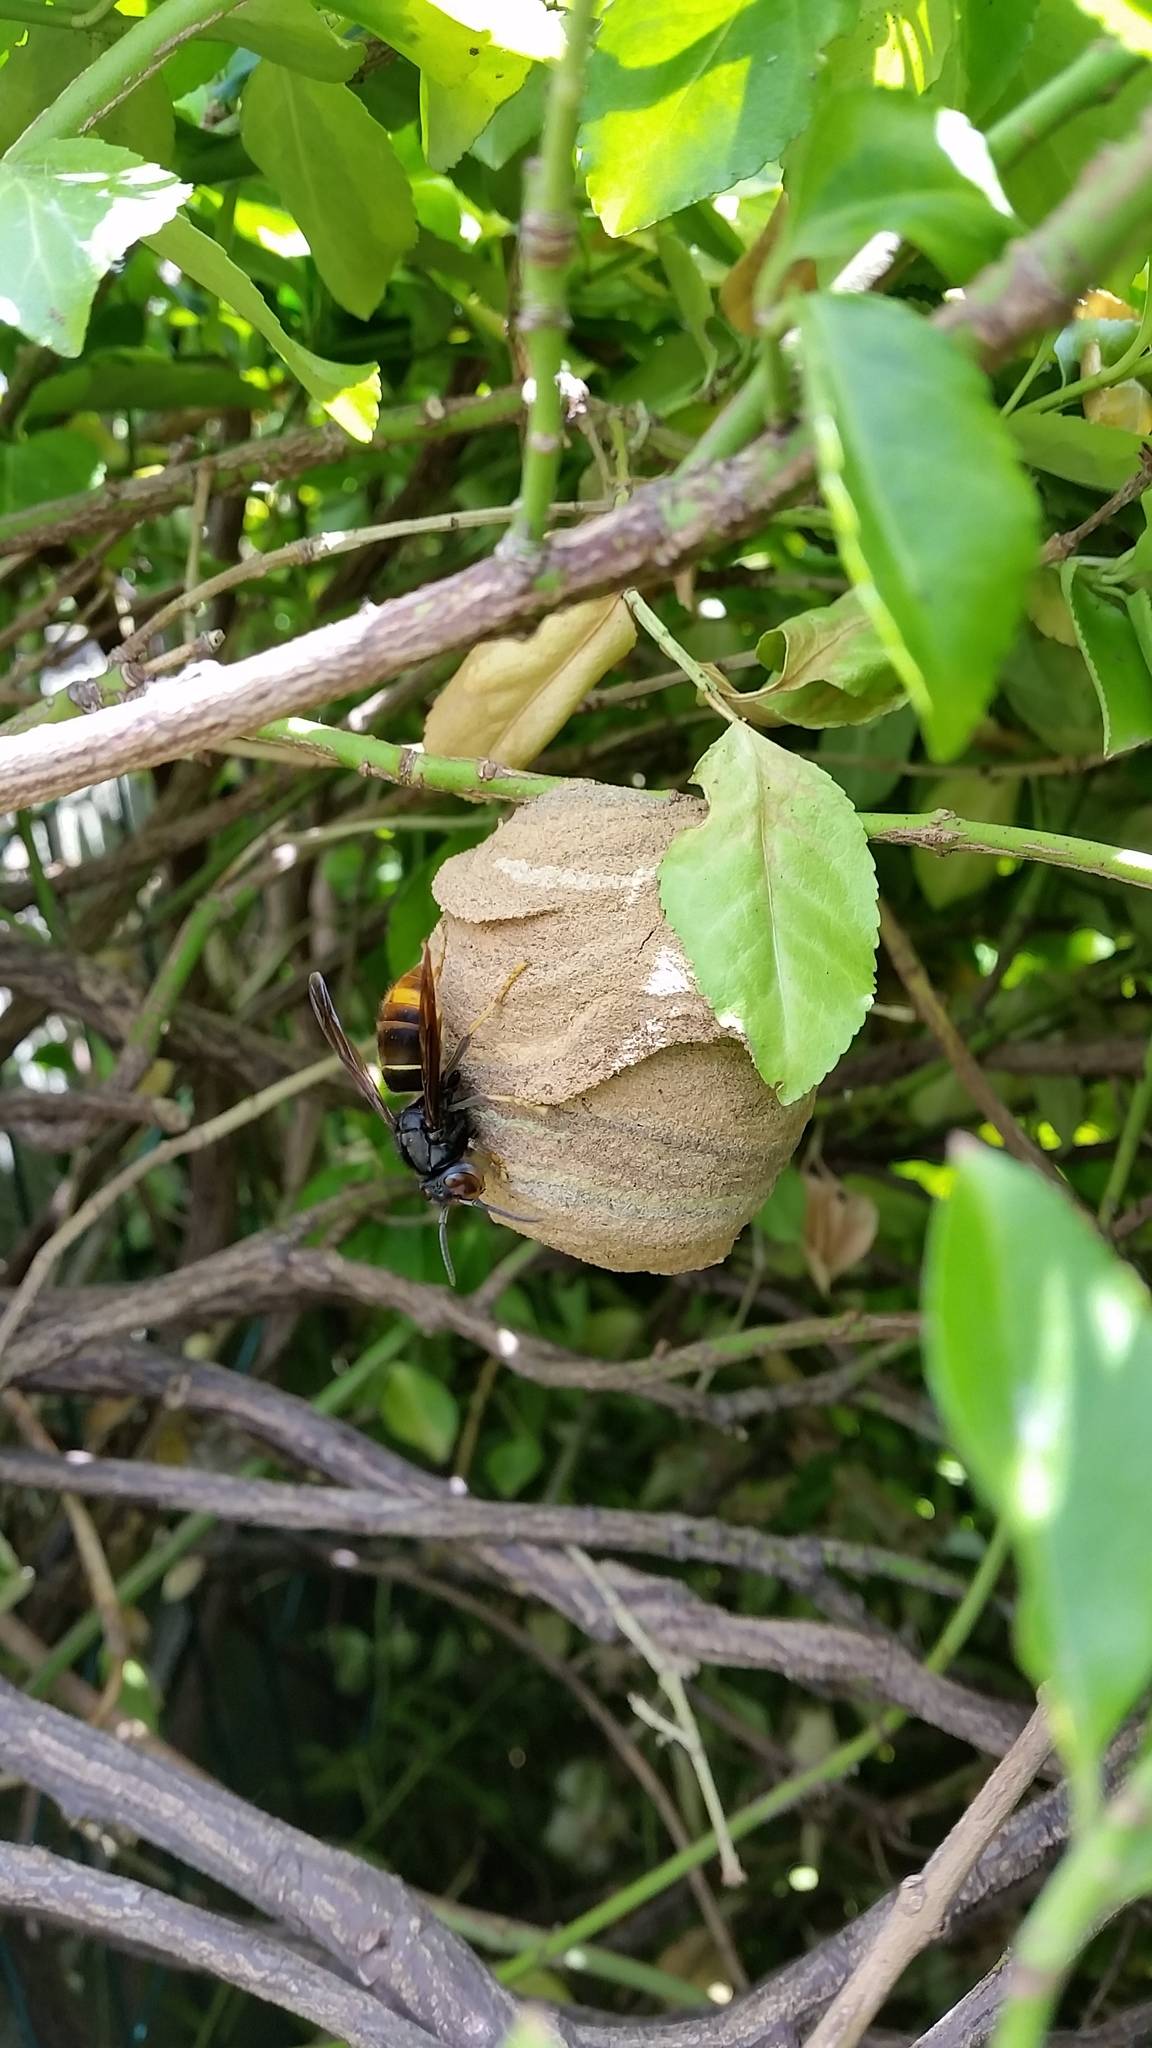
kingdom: Animalia
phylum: Arthropoda
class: Insecta
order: Hymenoptera
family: Vespidae
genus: Vespa
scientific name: Vespa velutina
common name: Asian hornet
